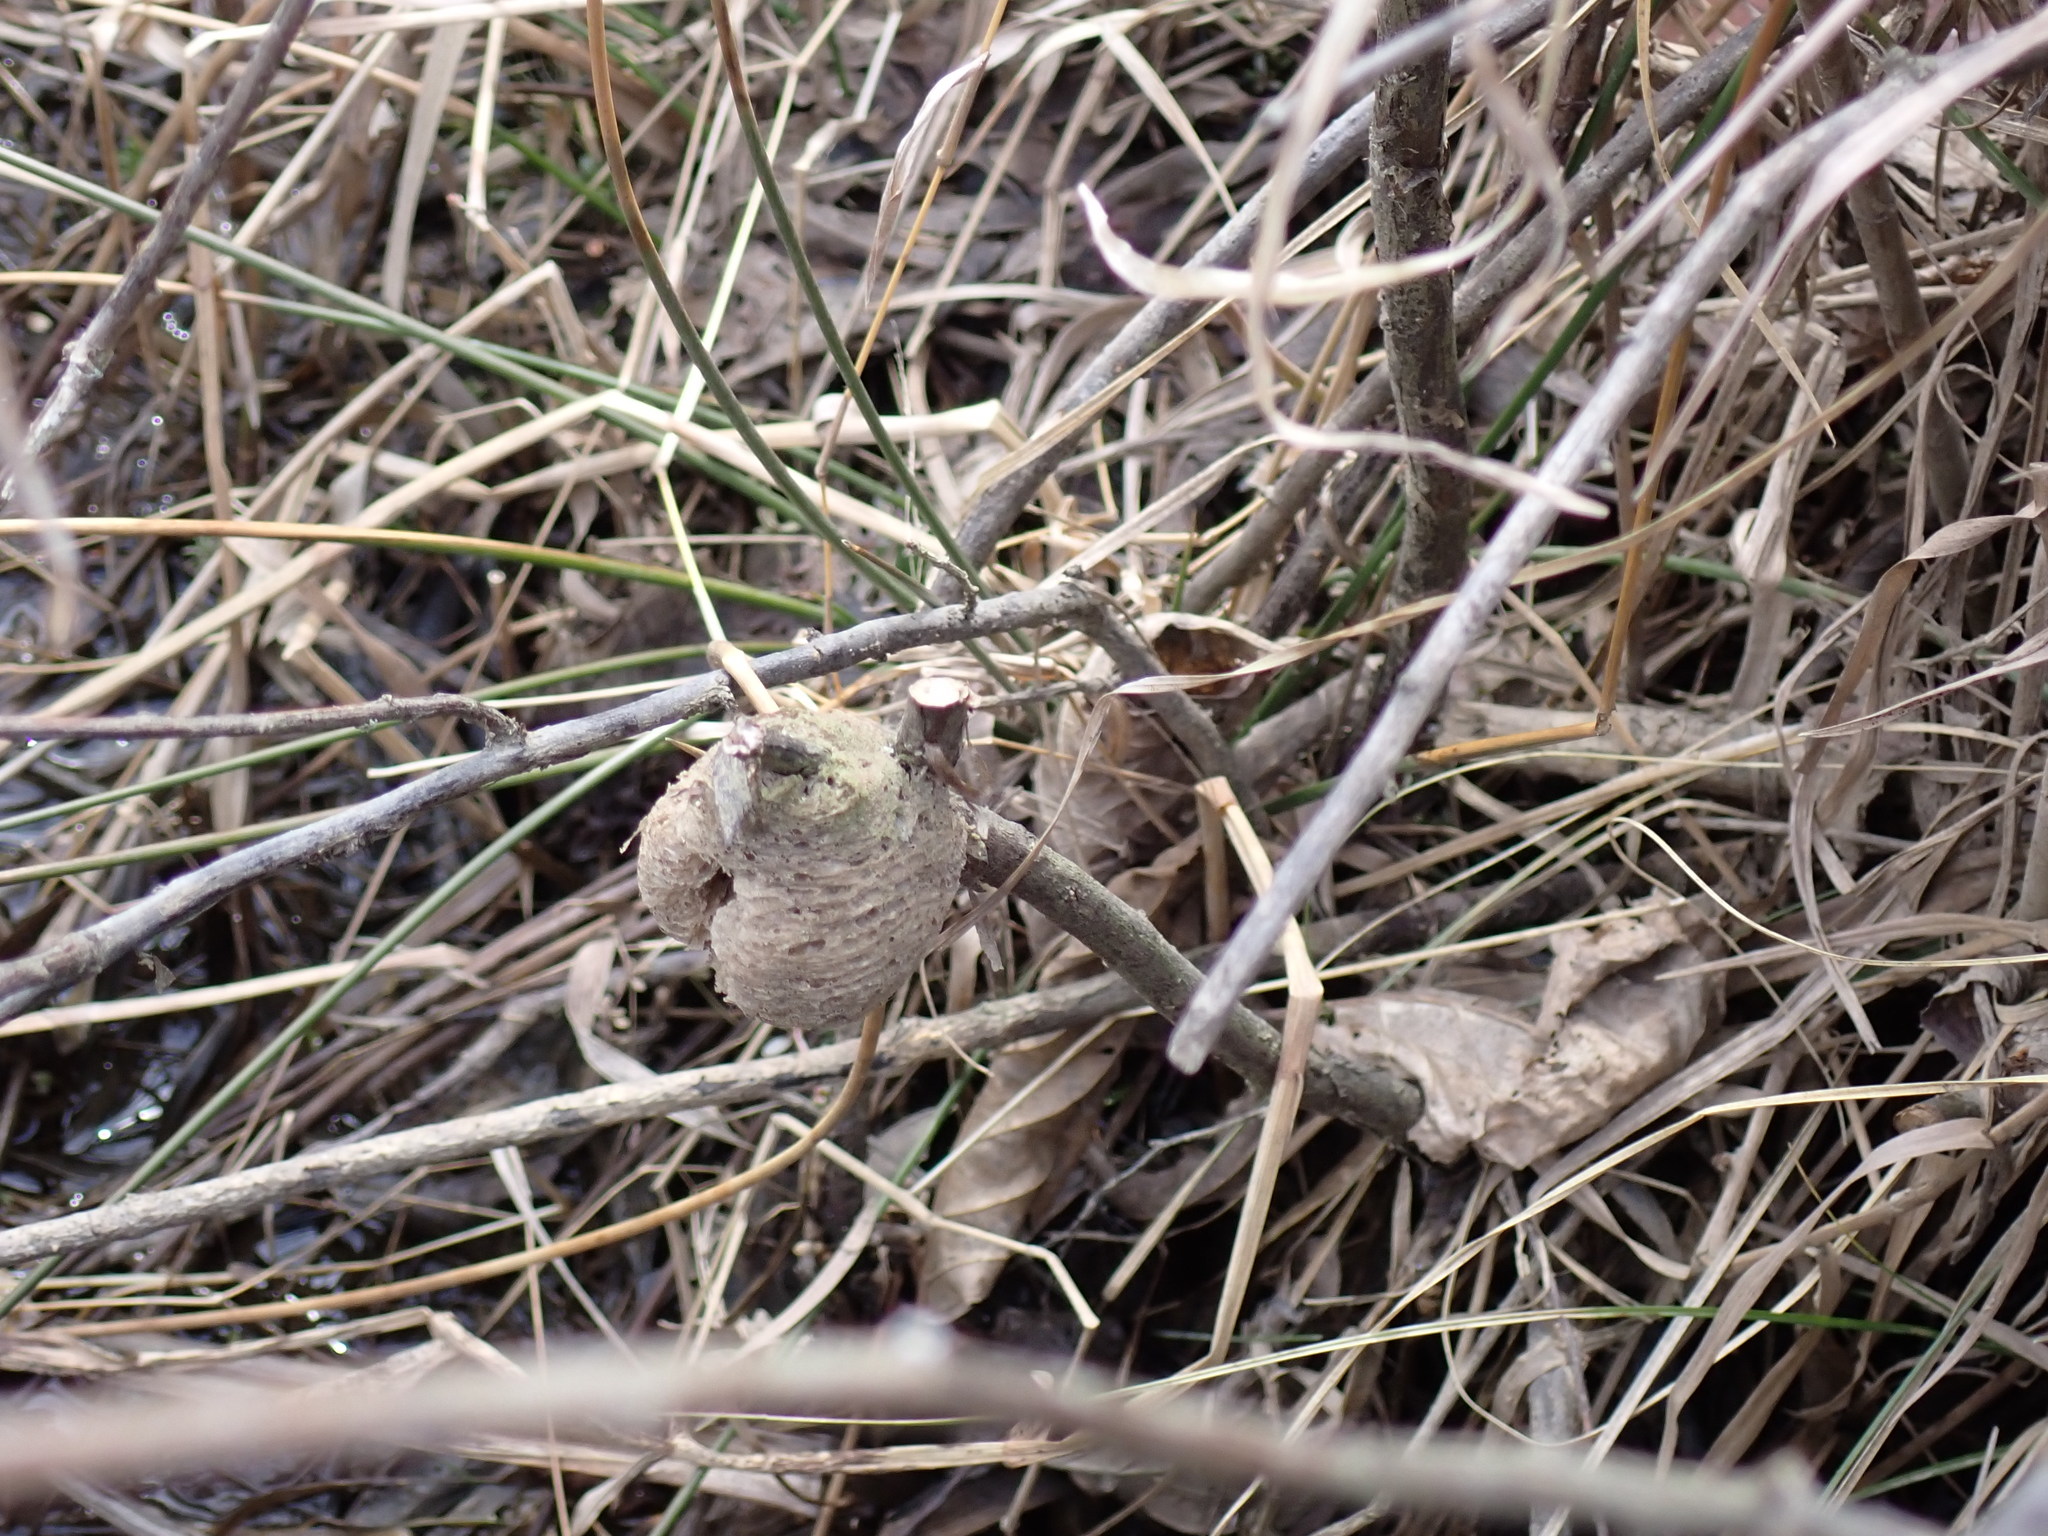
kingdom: Animalia
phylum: Arthropoda
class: Insecta
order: Mantodea
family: Mantidae
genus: Tenodera
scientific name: Tenodera sinensis
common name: Chinese mantis
